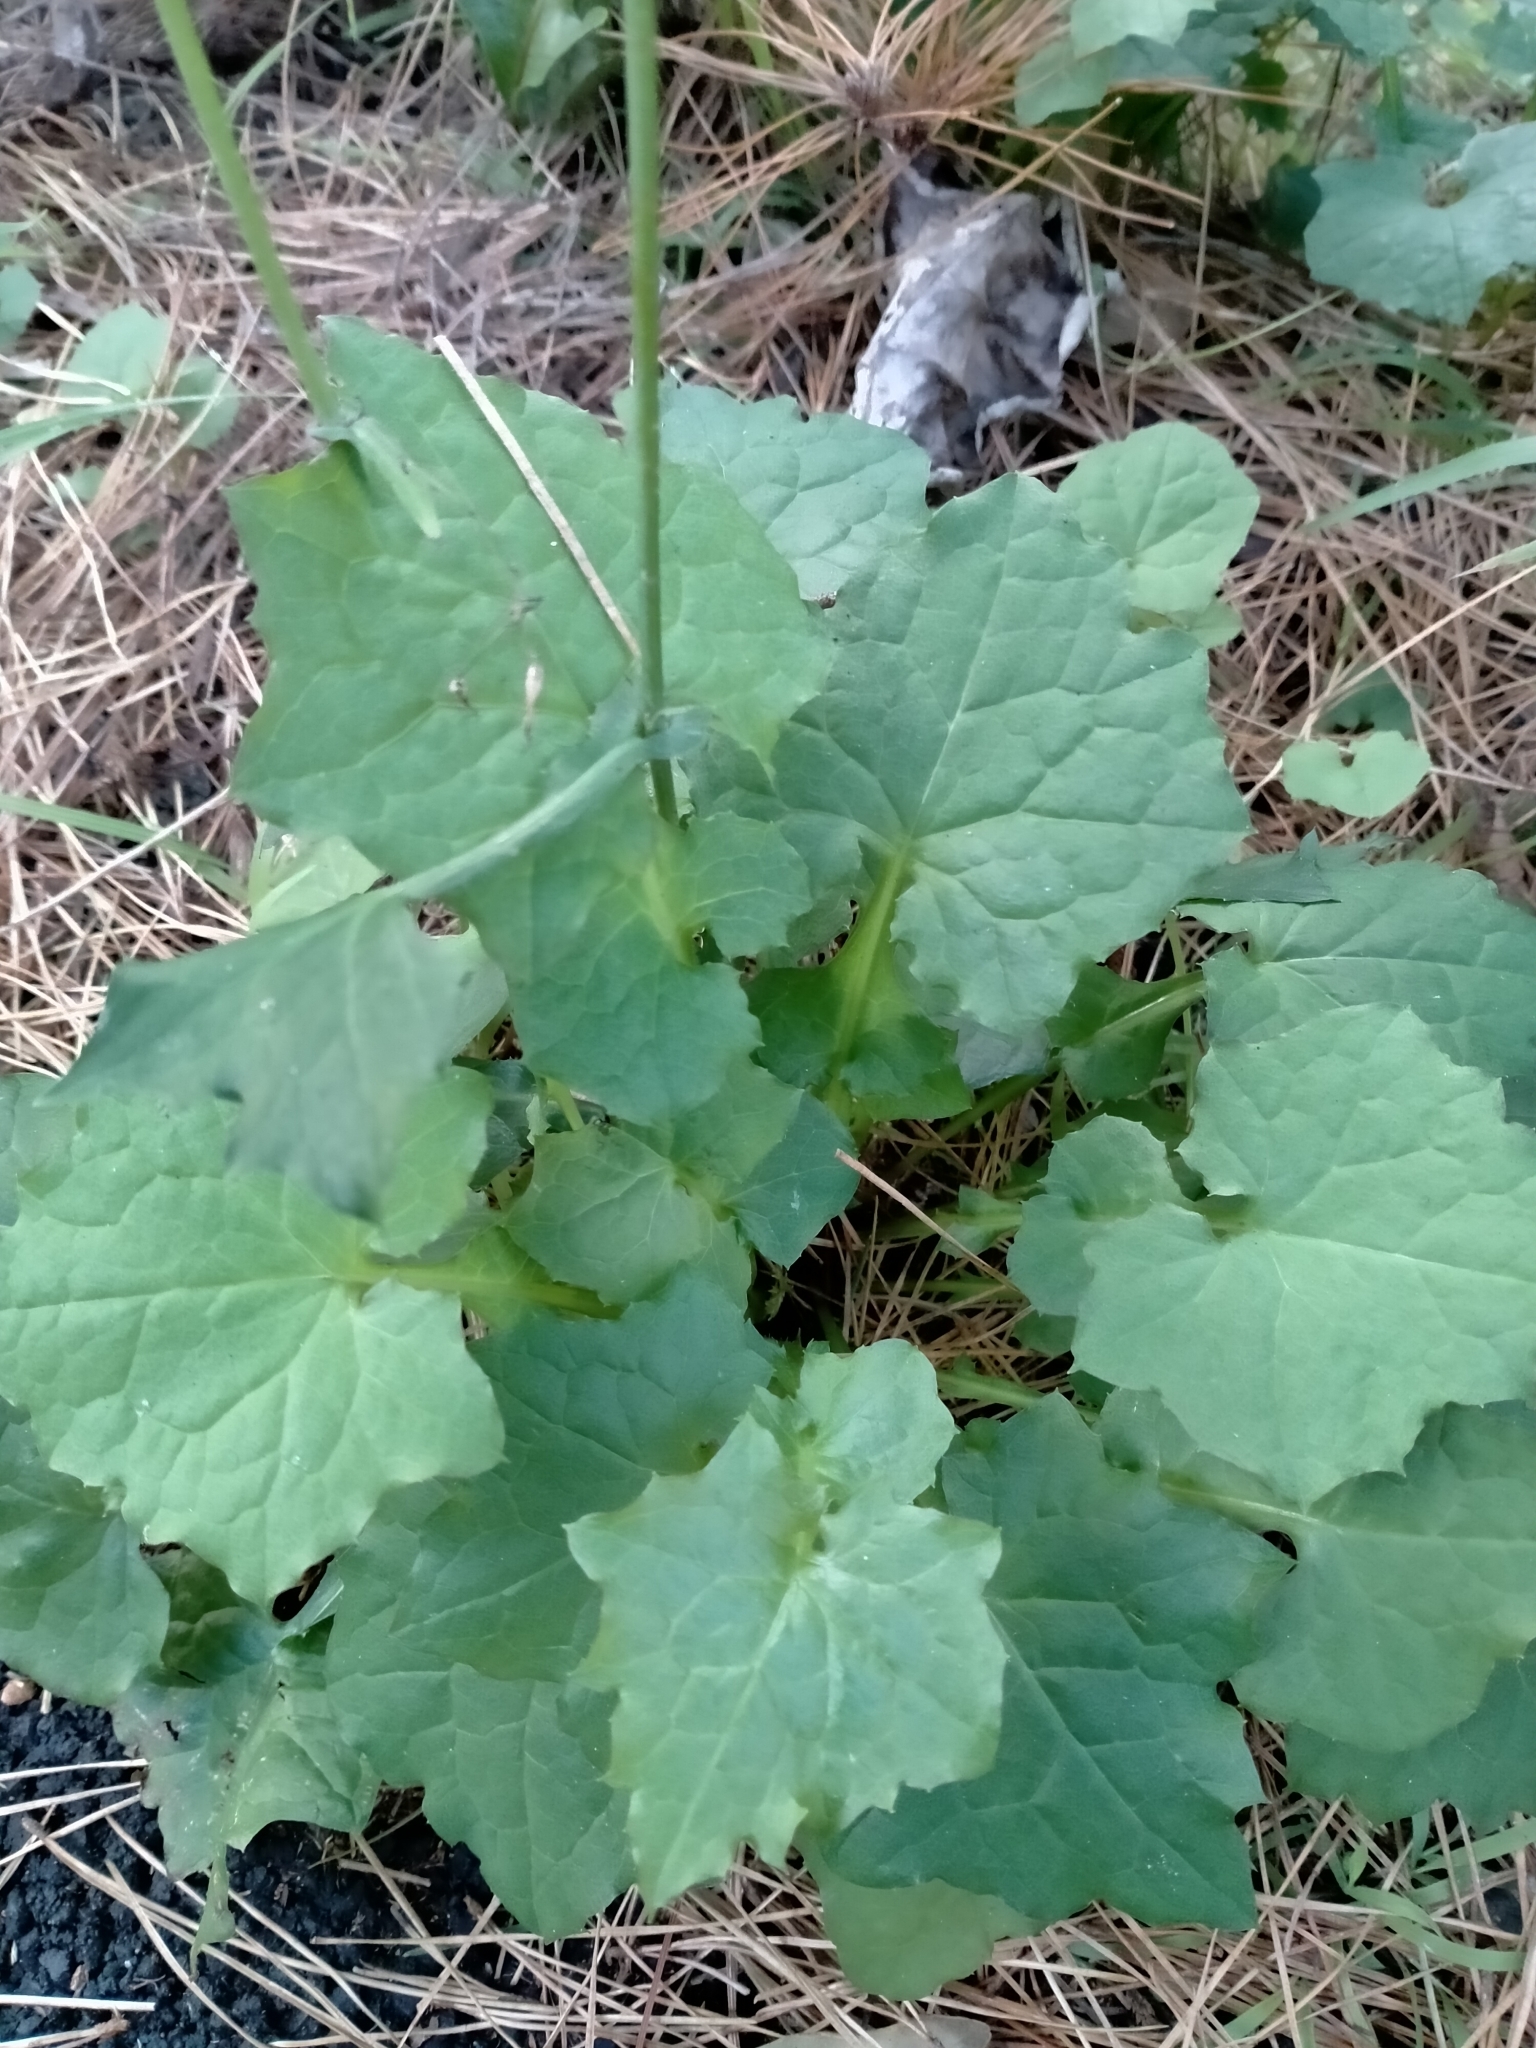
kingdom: Plantae
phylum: Tracheophyta
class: Magnoliopsida
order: Asterales
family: Asteraceae
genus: Mycelis
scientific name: Mycelis muralis
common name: Wall lettuce
